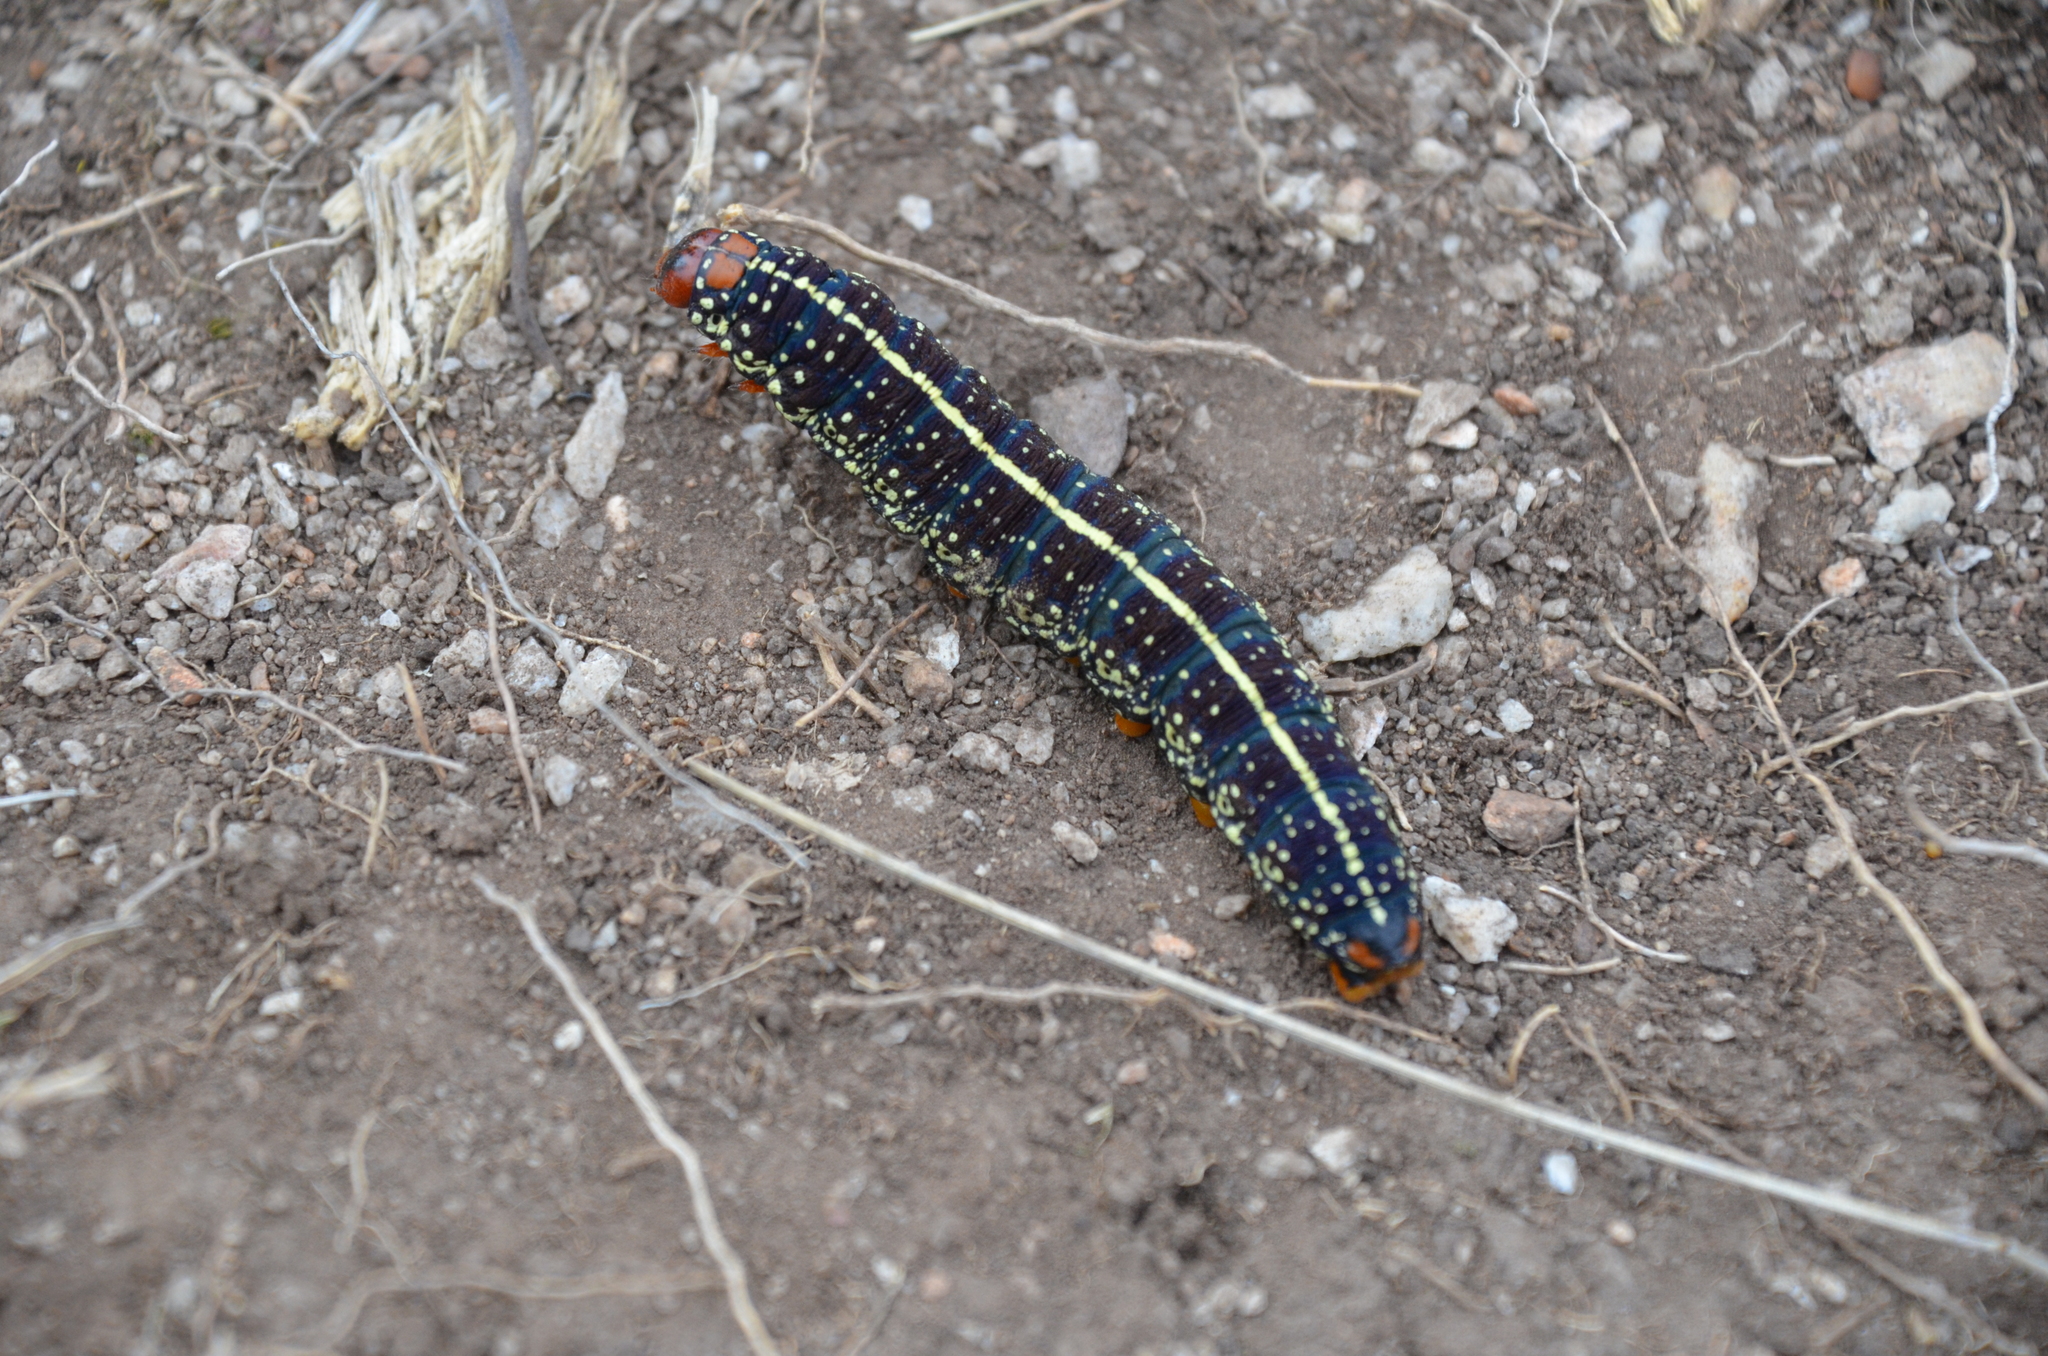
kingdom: Animalia
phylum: Arthropoda
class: Insecta
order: Lepidoptera
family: Noctuidae
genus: Chlanidophora
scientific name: Chlanidophora
